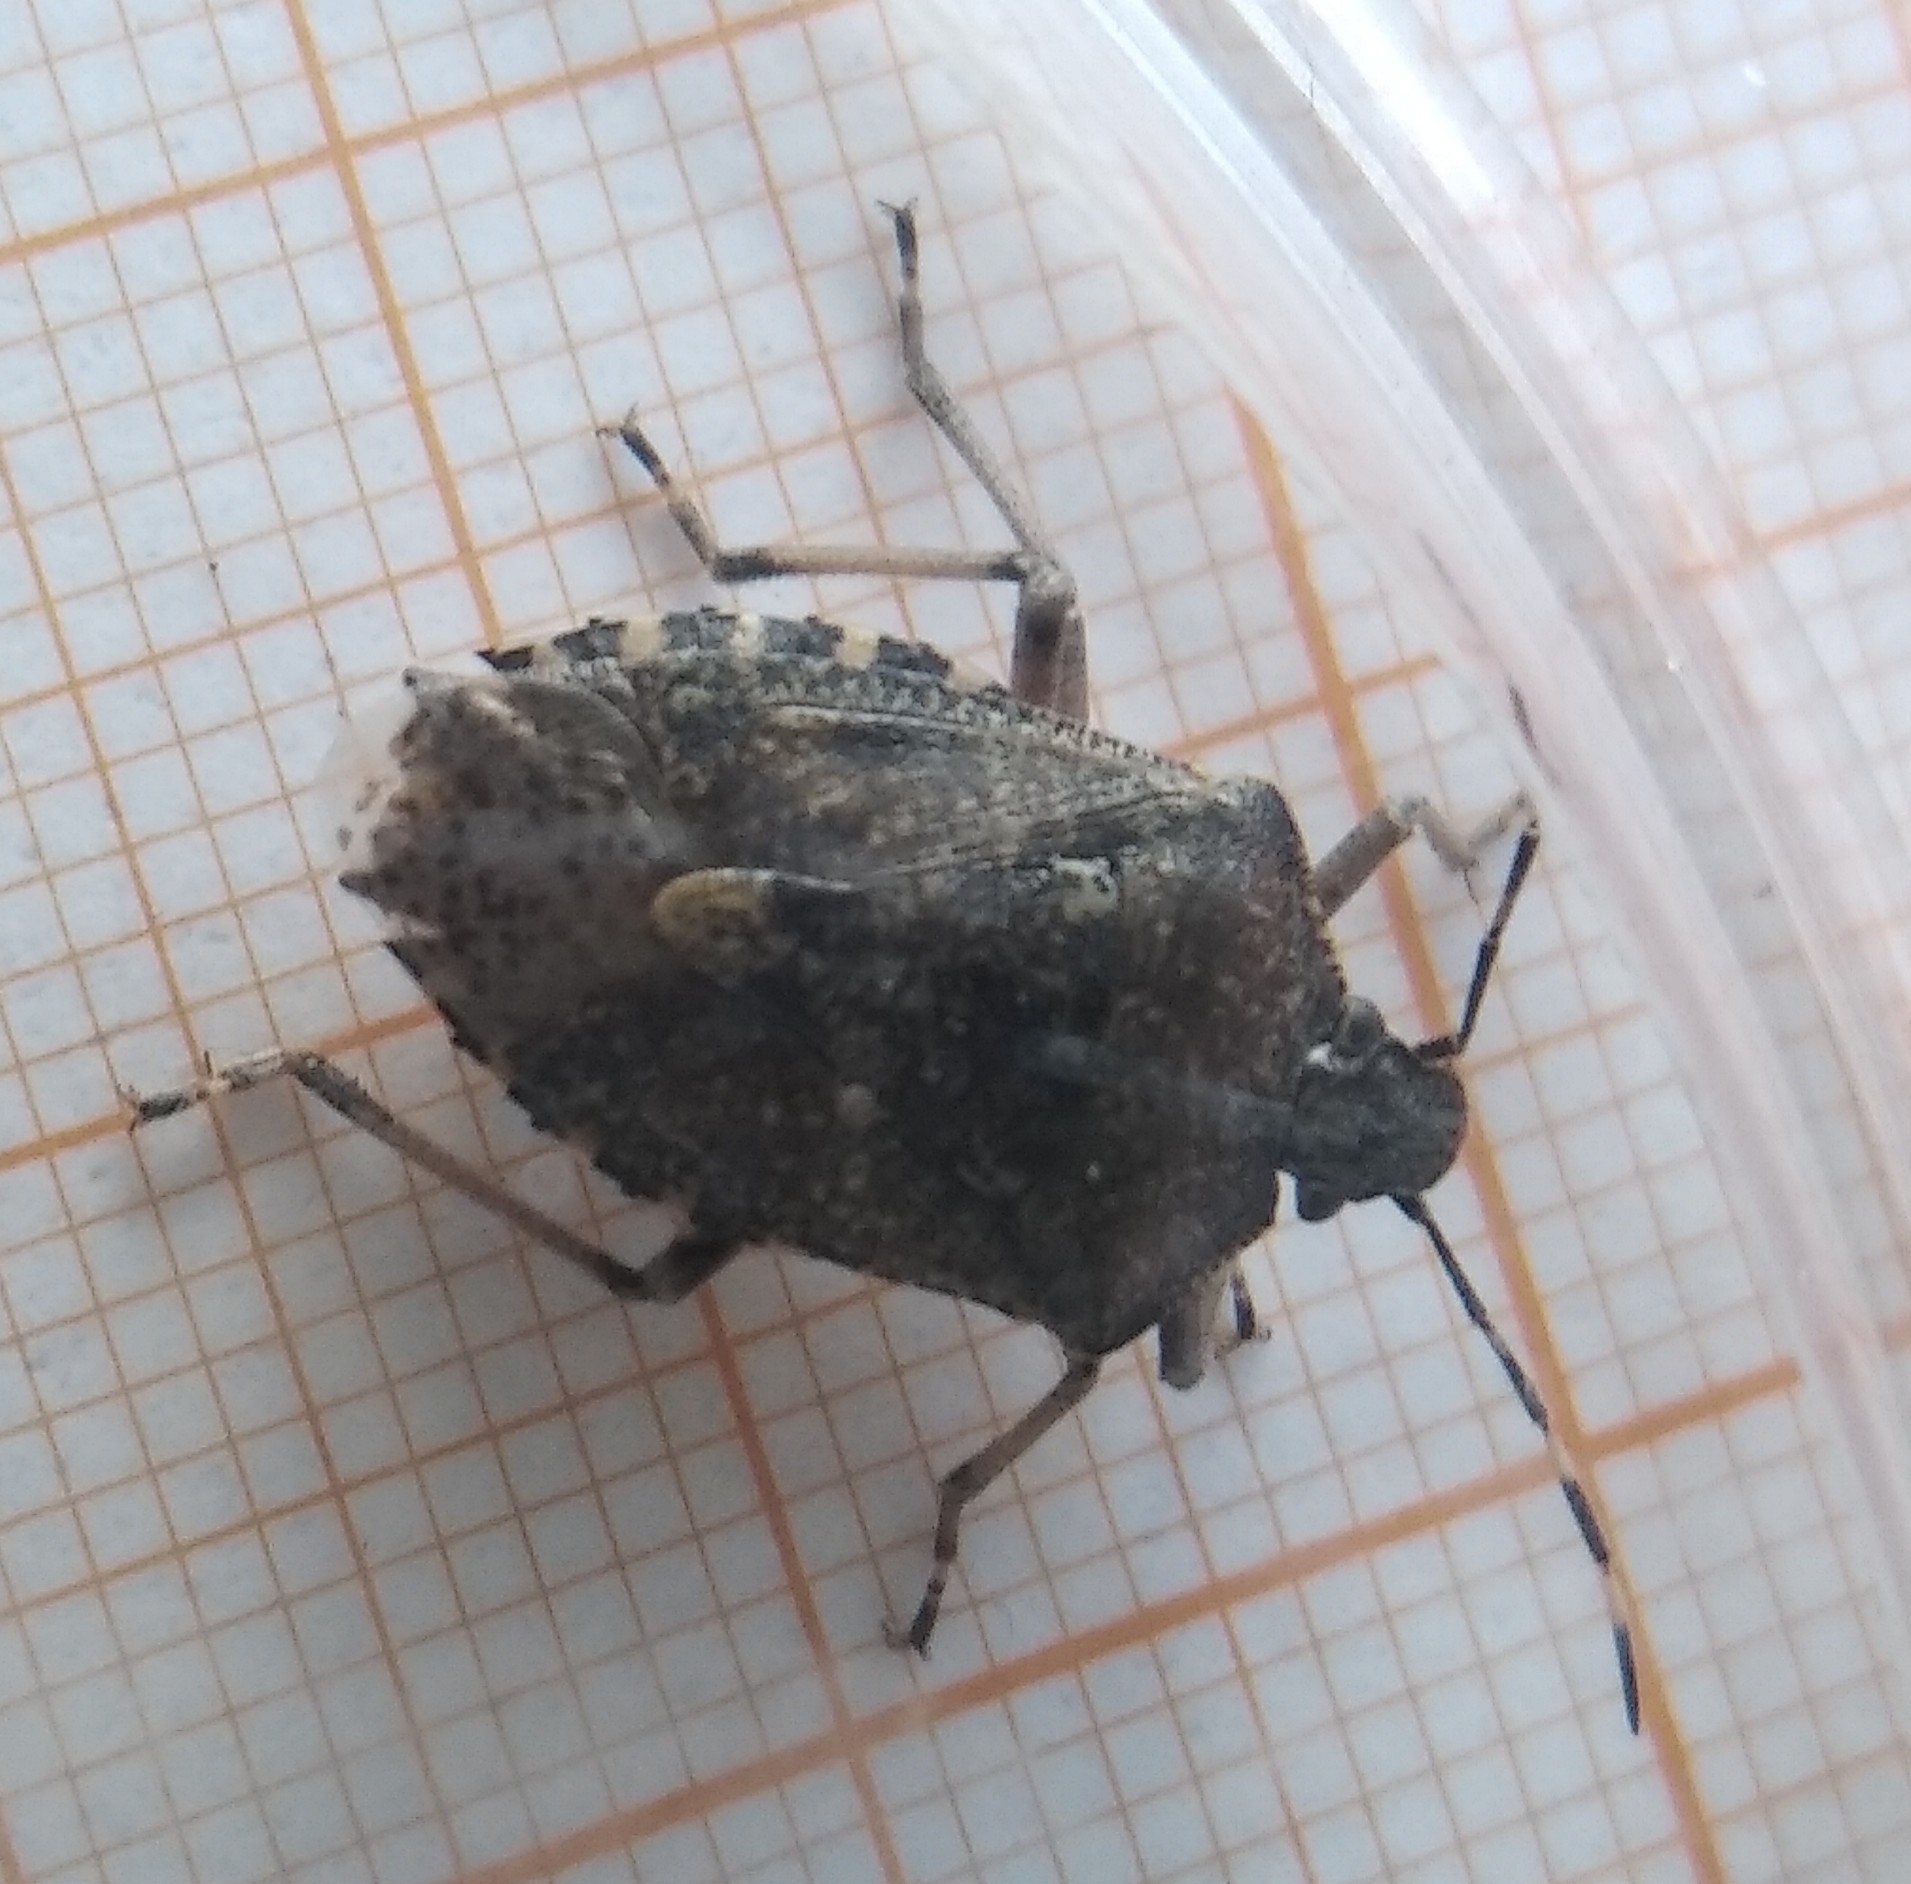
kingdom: Animalia
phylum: Arthropoda
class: Insecta
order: Hemiptera
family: Pentatomidae
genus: Rhaphigaster
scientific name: Rhaphigaster nebulosa
